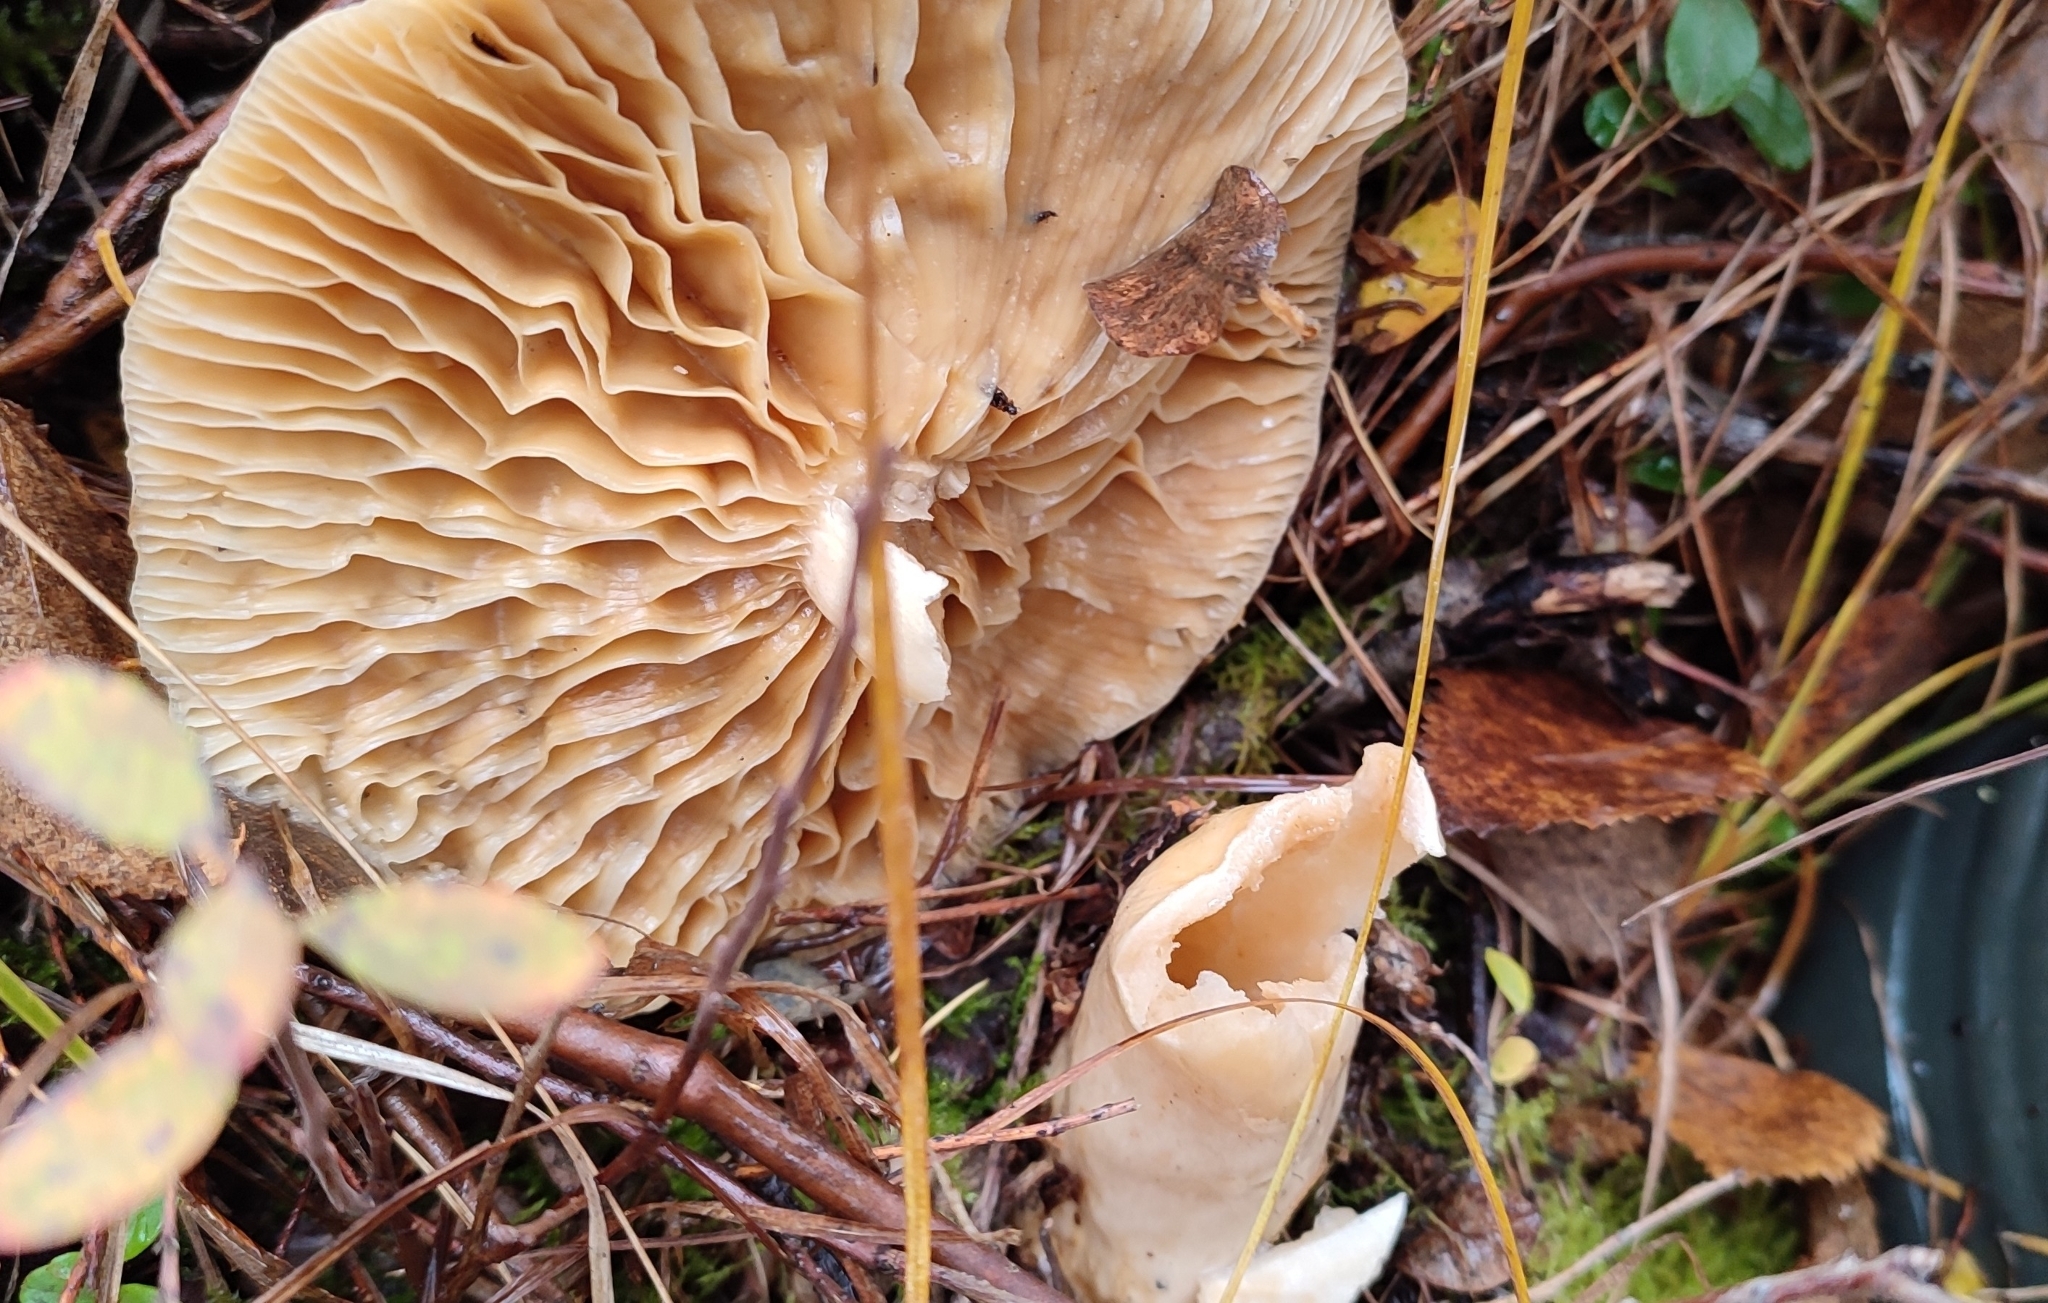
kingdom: Fungi
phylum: Basidiomycota
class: Agaricomycetes
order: Russulales
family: Russulaceae
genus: Lactarius
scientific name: Lactarius trivialis
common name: Tacked milkcap
